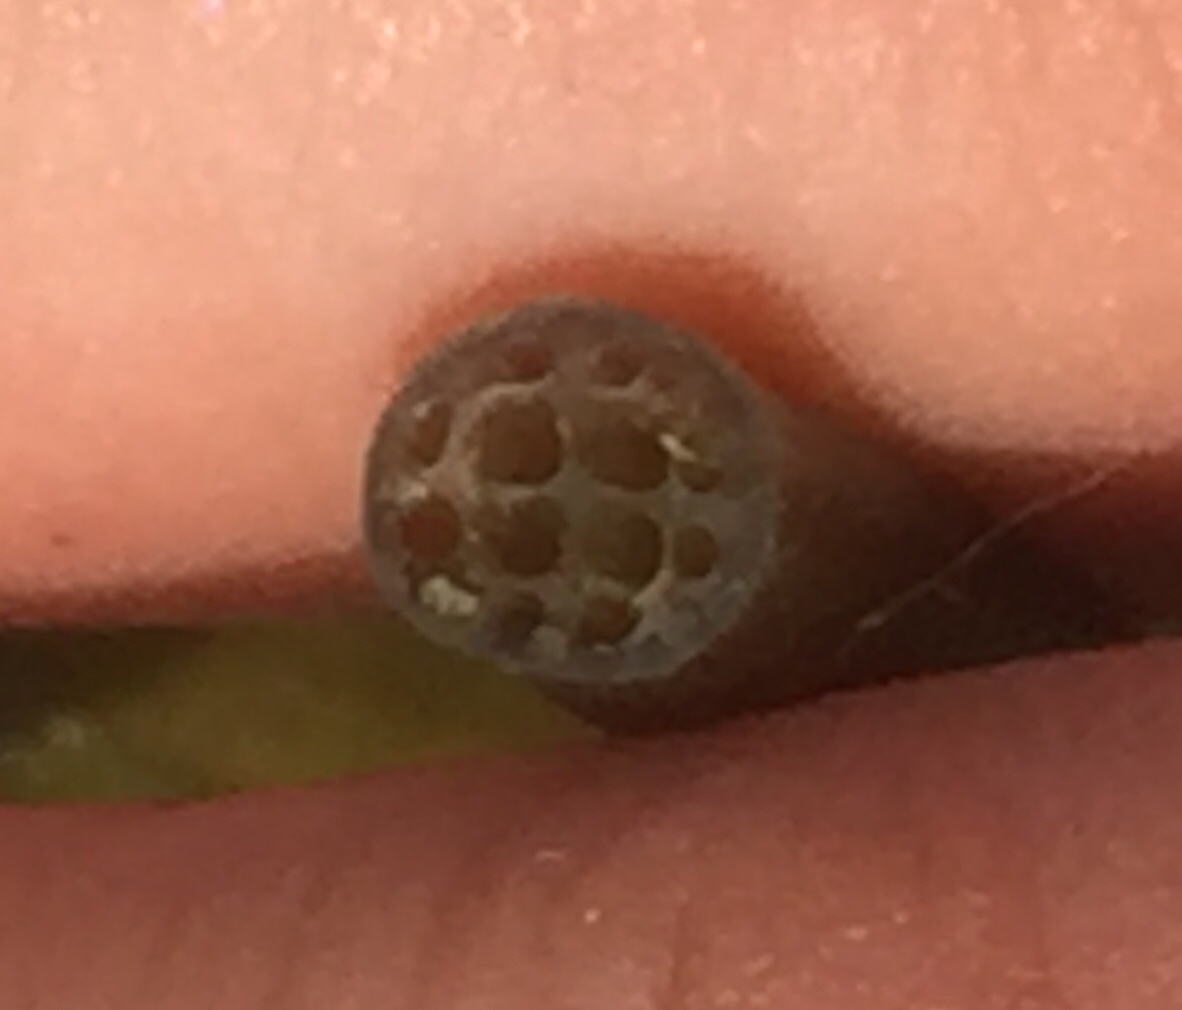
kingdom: Plantae
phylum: Tracheophyta
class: Magnoliopsida
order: Nymphaeales
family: Nymphaeaceae
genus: Nymphaea
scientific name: Nymphaea candida
